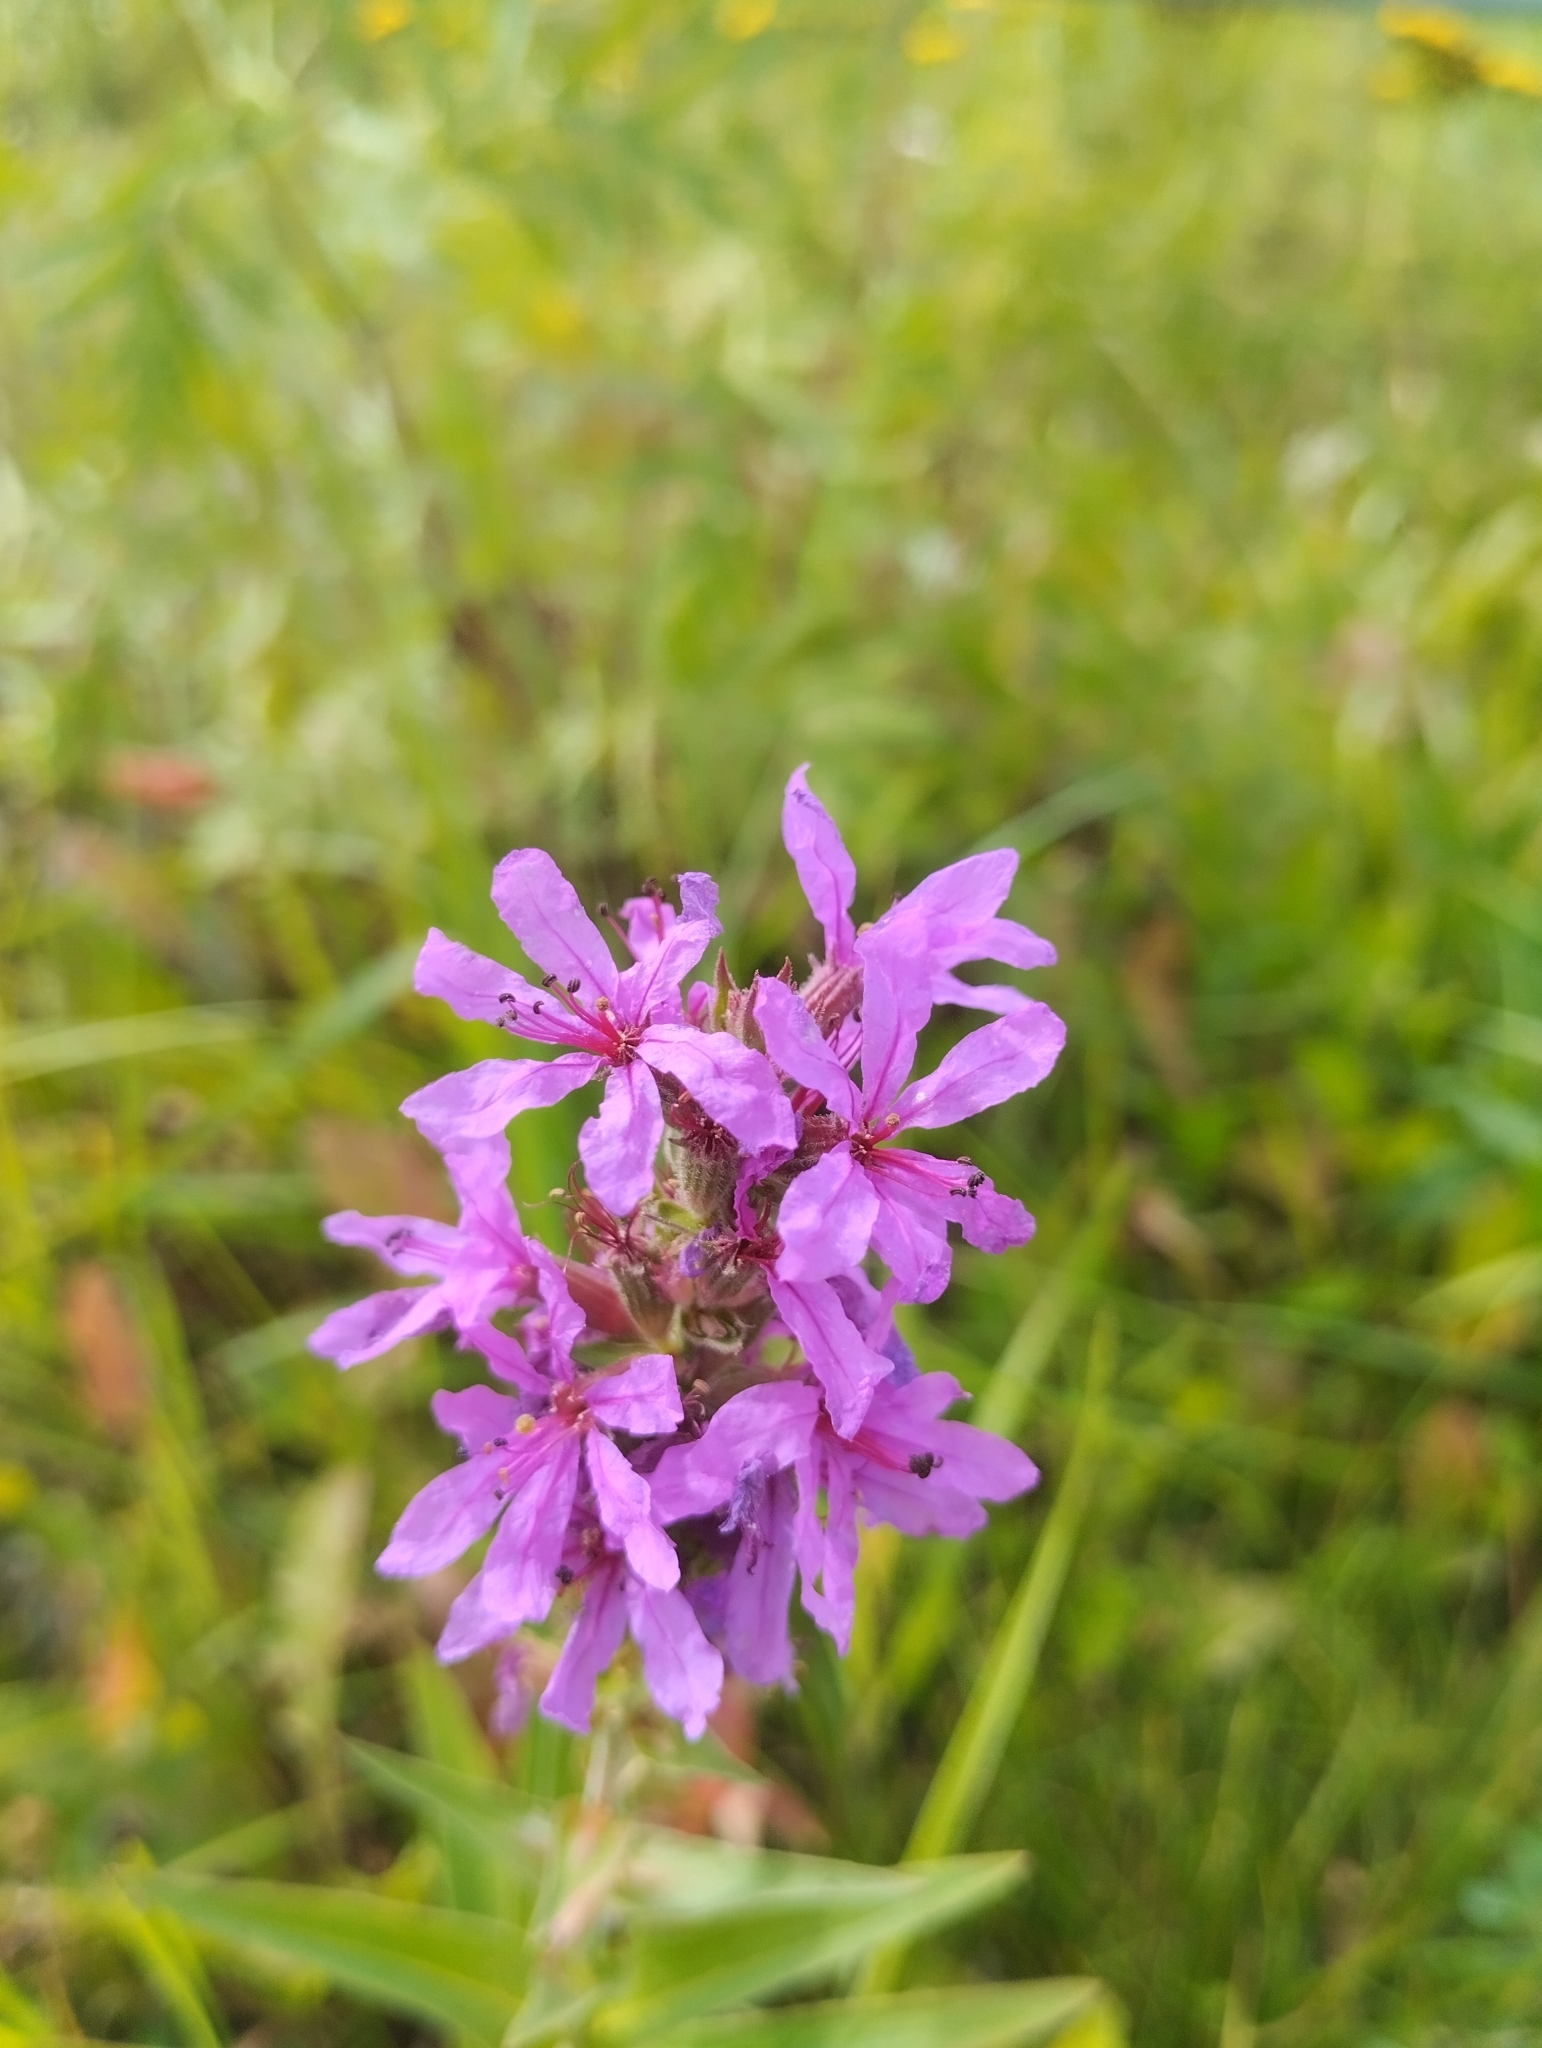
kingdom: Plantae
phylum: Tracheophyta
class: Magnoliopsida
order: Myrtales
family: Lythraceae
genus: Lythrum
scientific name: Lythrum salicaria
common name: Purple loosestrife
